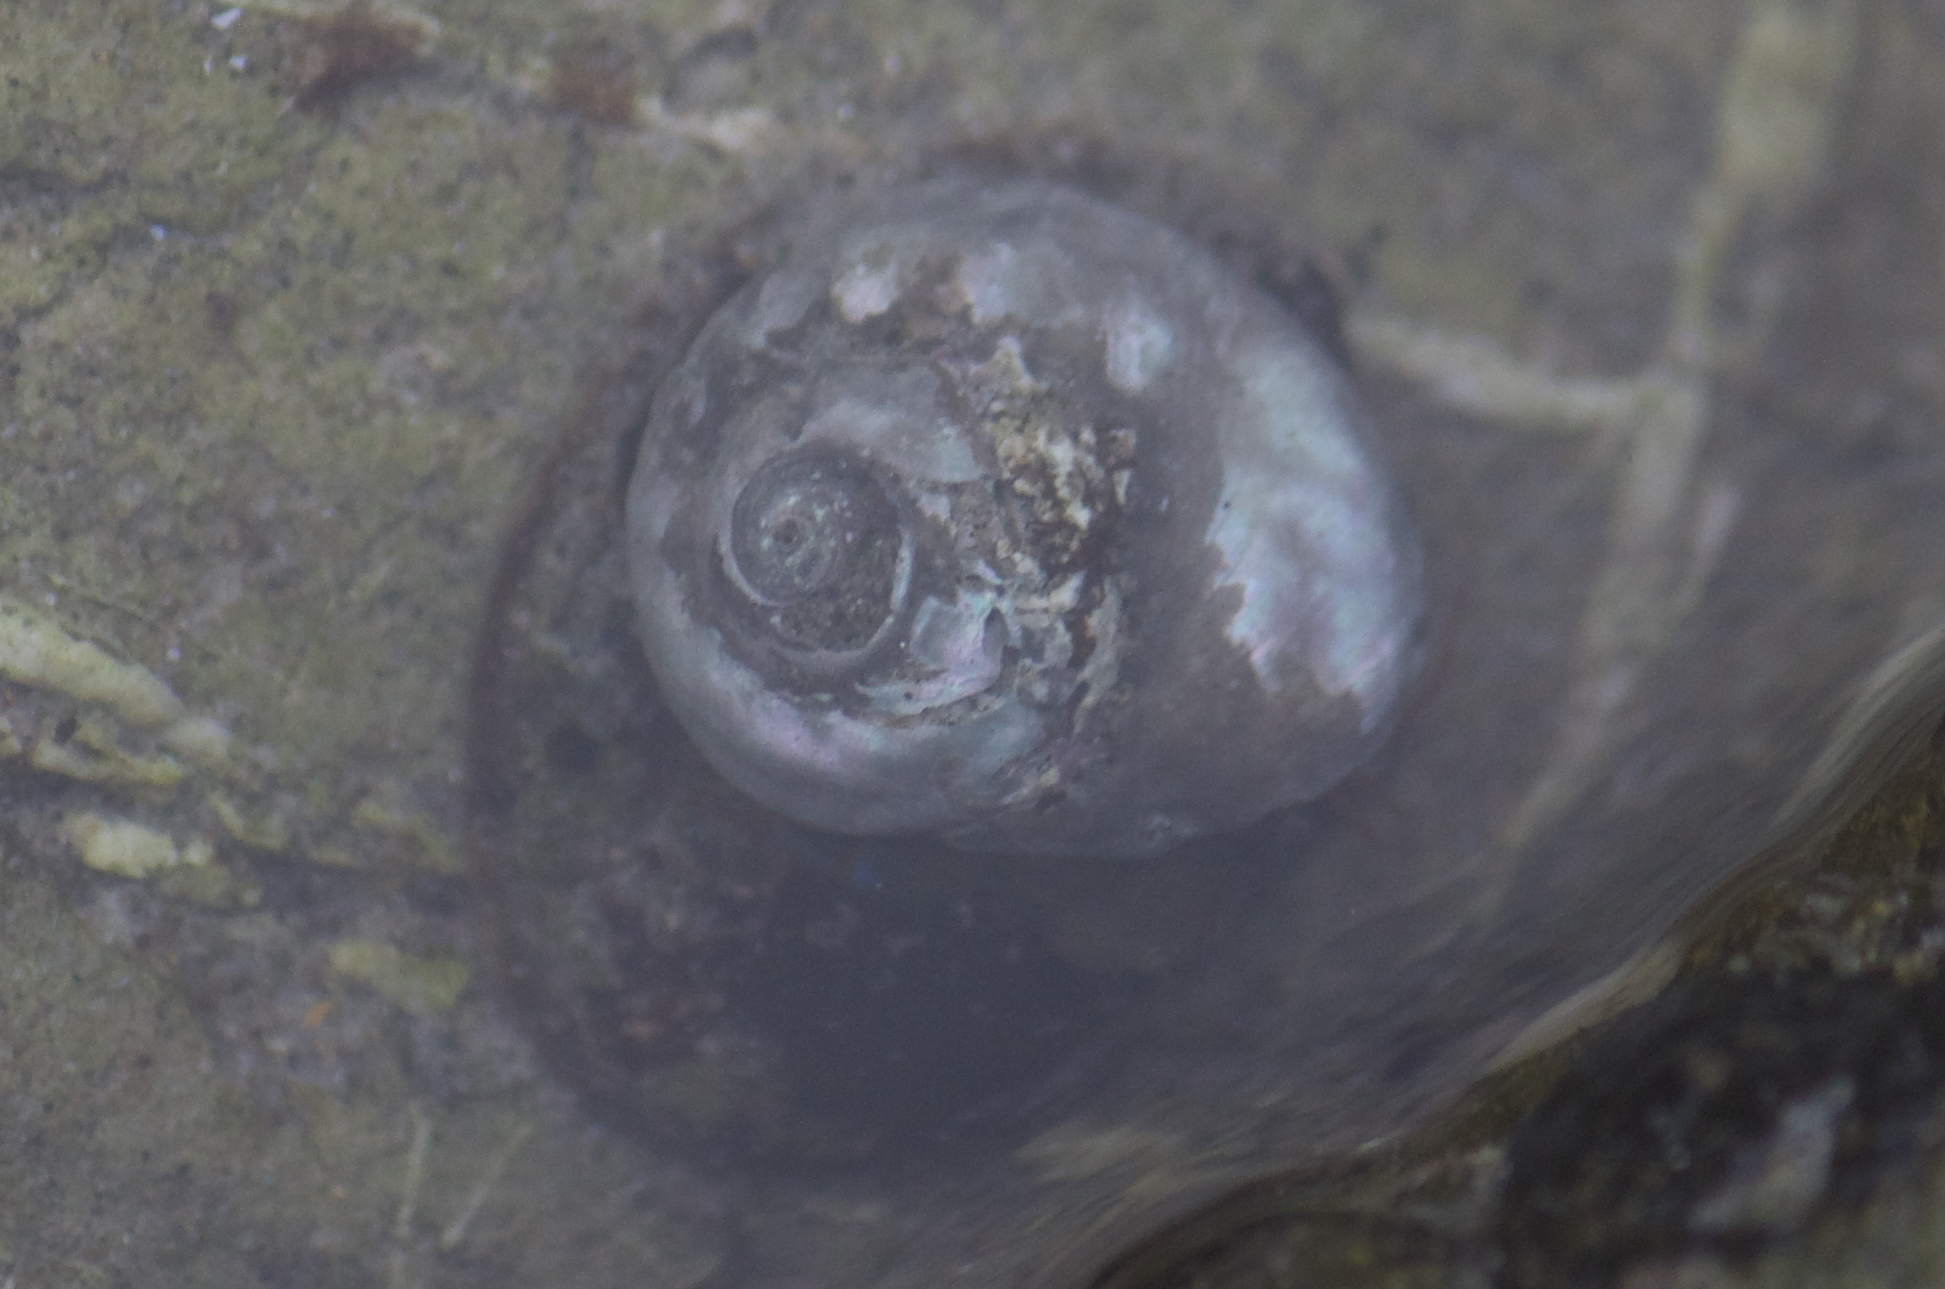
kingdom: Animalia
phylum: Mollusca
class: Gastropoda
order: Trochida
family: Tegulidae
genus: Tegula
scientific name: Tegula aureotincta
